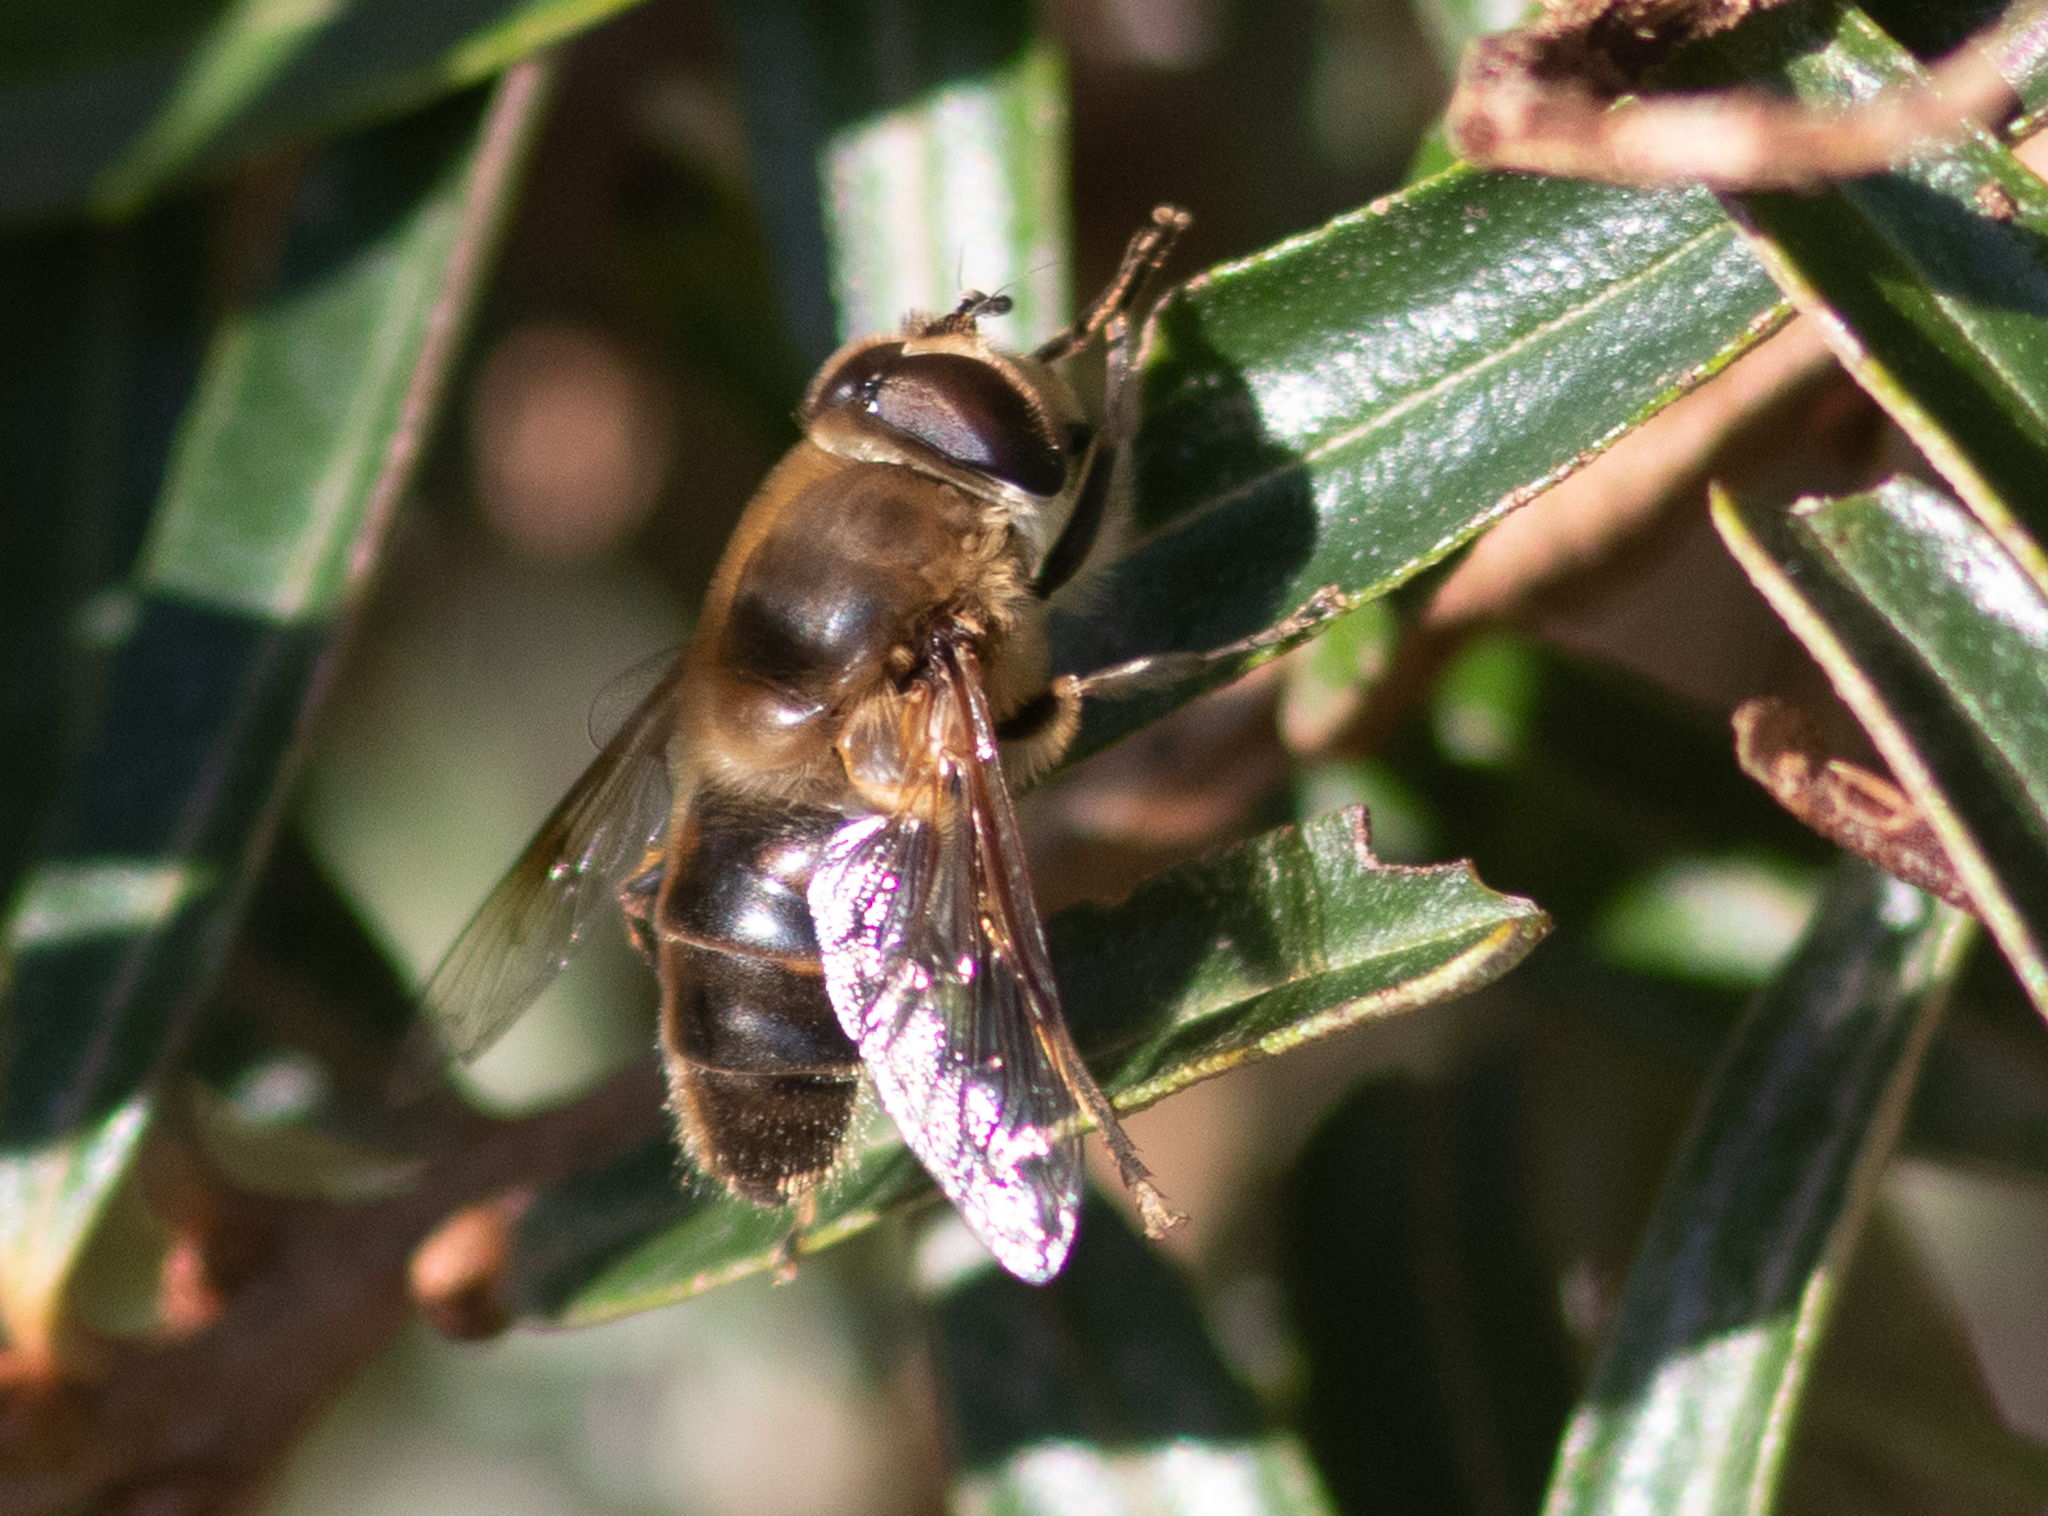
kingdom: Animalia
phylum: Arthropoda
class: Insecta
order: Diptera
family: Syrphidae
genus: Eristalis
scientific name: Eristalis tenax
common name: Drone fly
